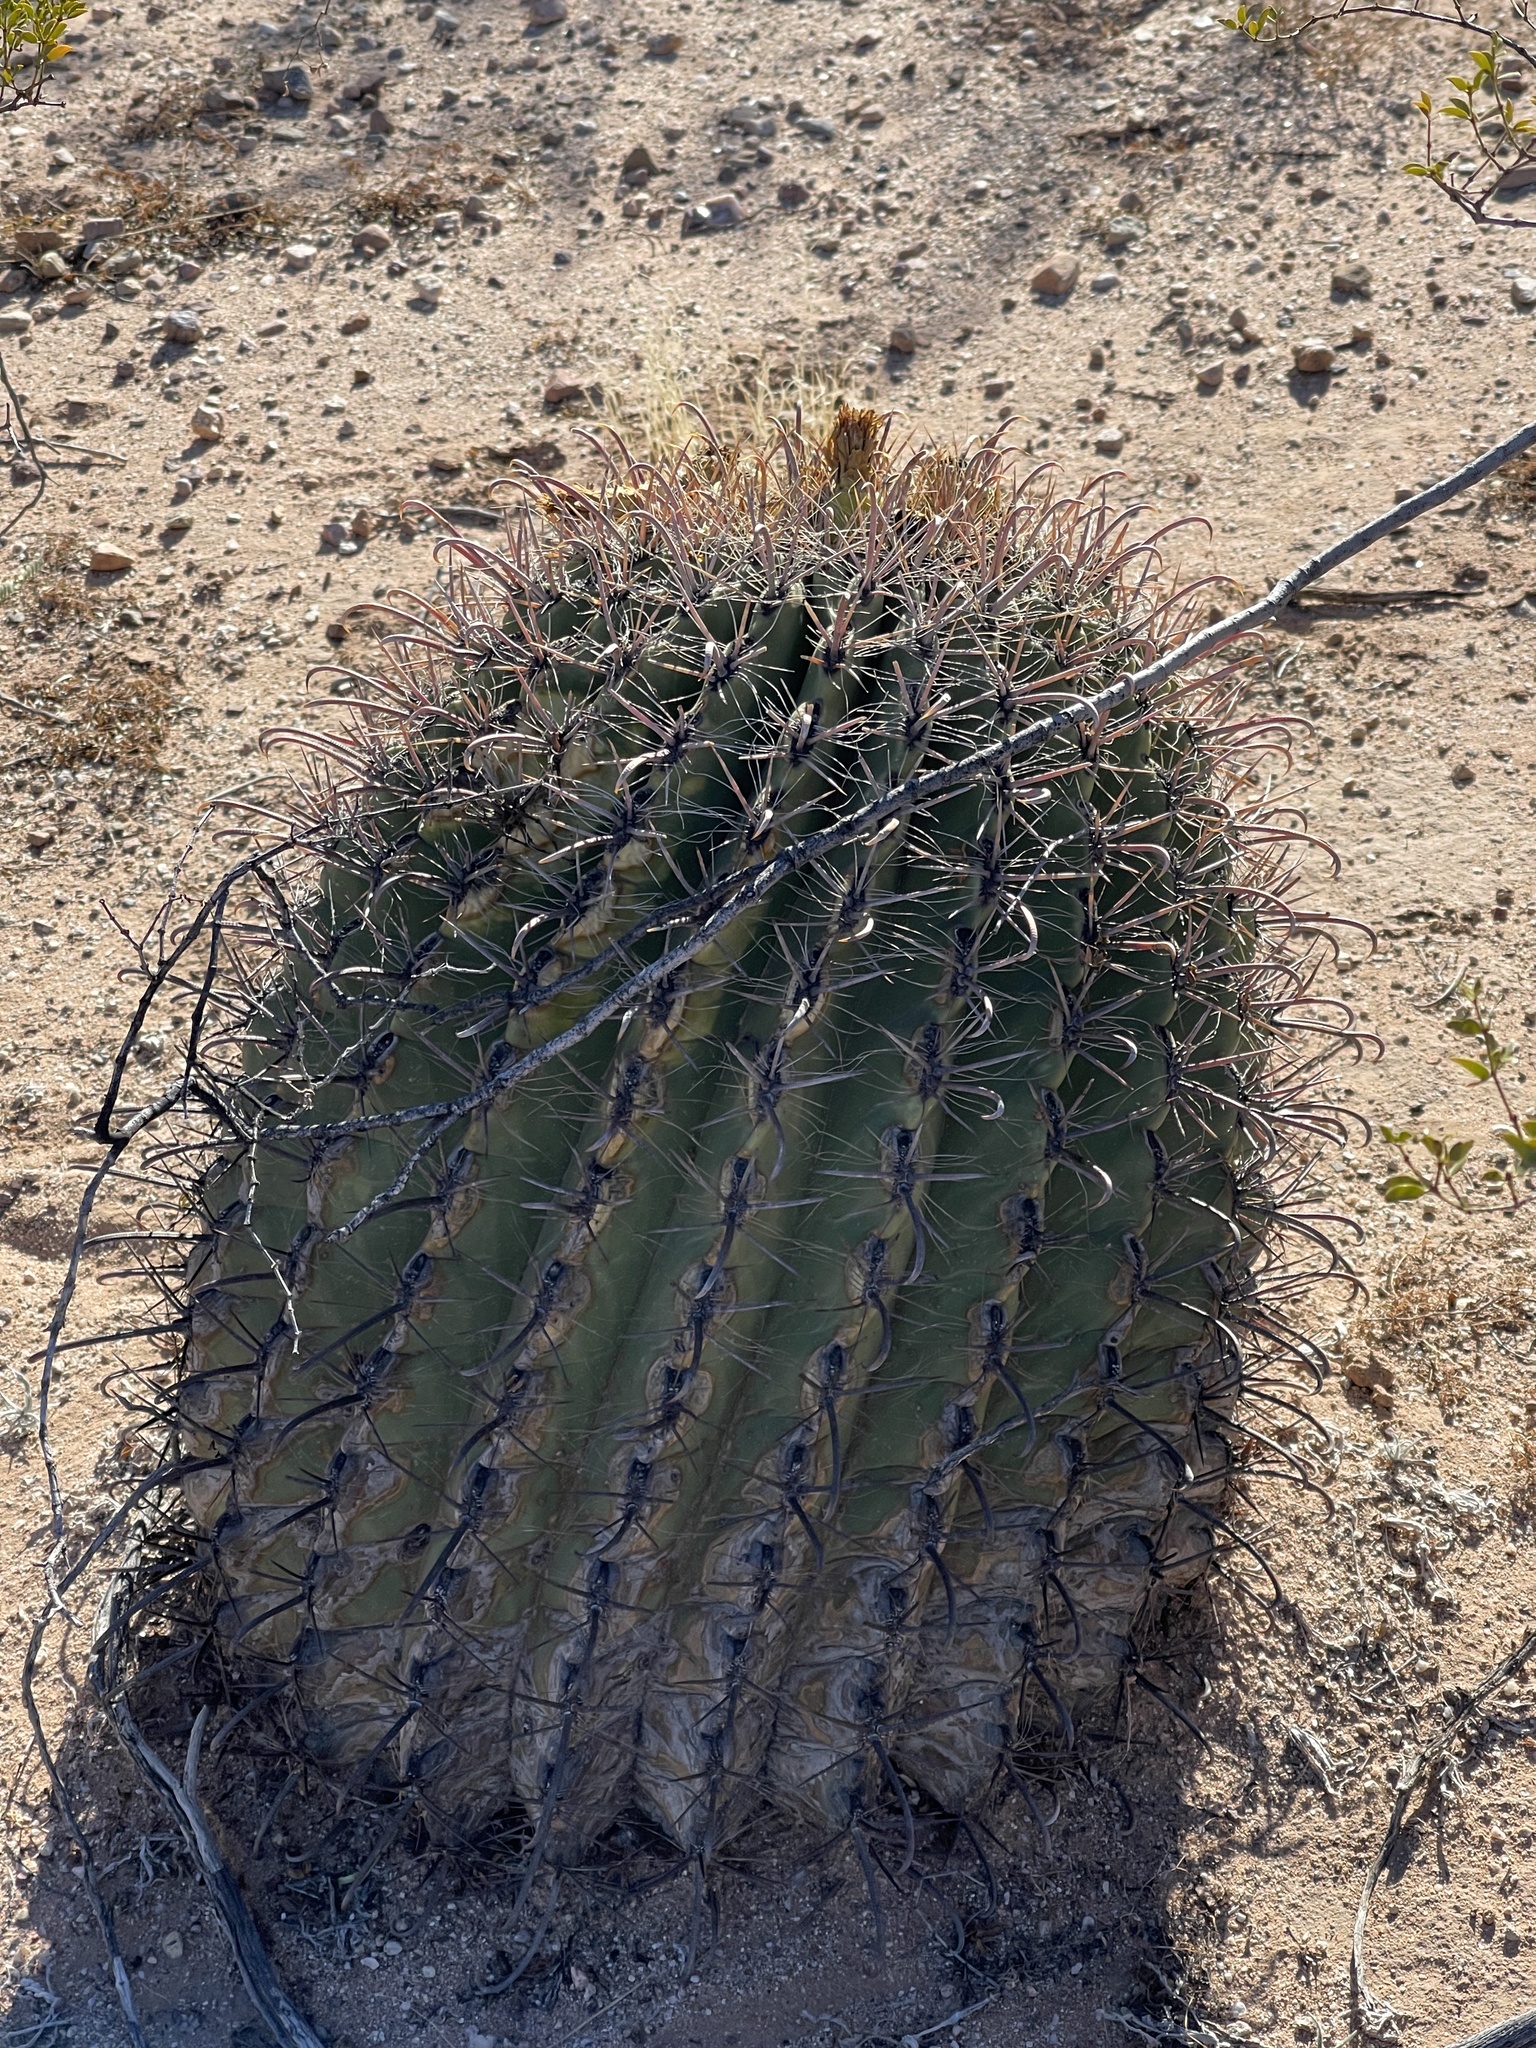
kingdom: Plantae
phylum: Tracheophyta
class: Magnoliopsida
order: Caryophyllales
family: Cactaceae
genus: Ferocactus
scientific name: Ferocactus wislizeni
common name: Candy barrel cactus
